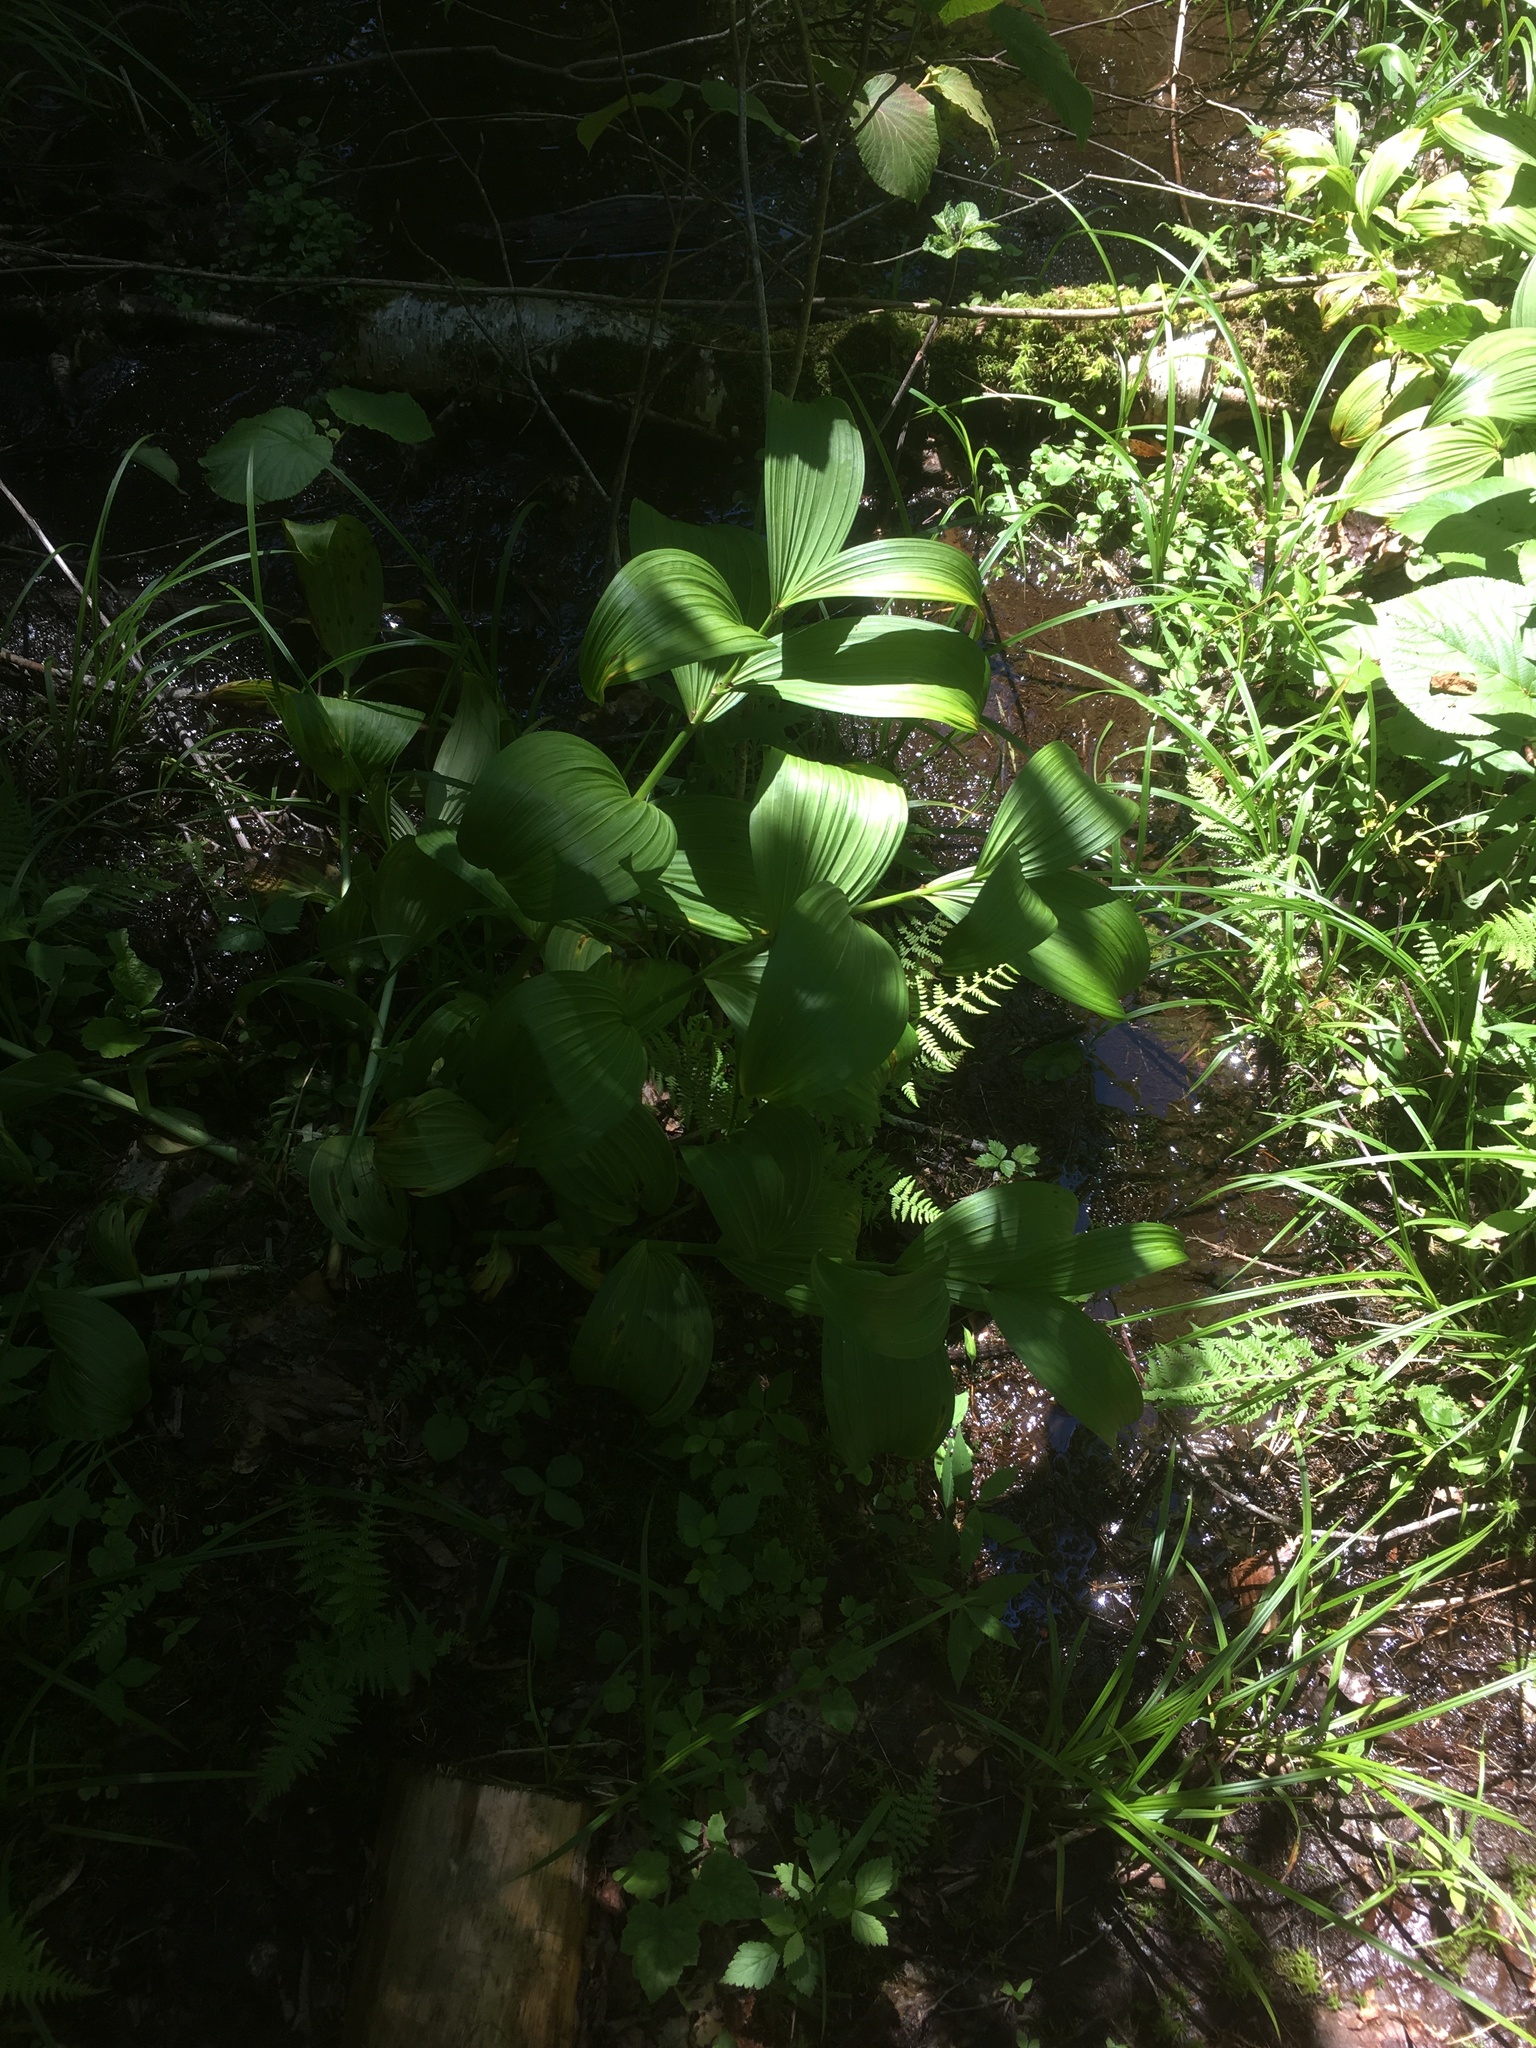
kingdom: Plantae
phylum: Tracheophyta
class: Liliopsida
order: Liliales
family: Melanthiaceae
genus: Veratrum
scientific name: Veratrum viride
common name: American false hellebore
